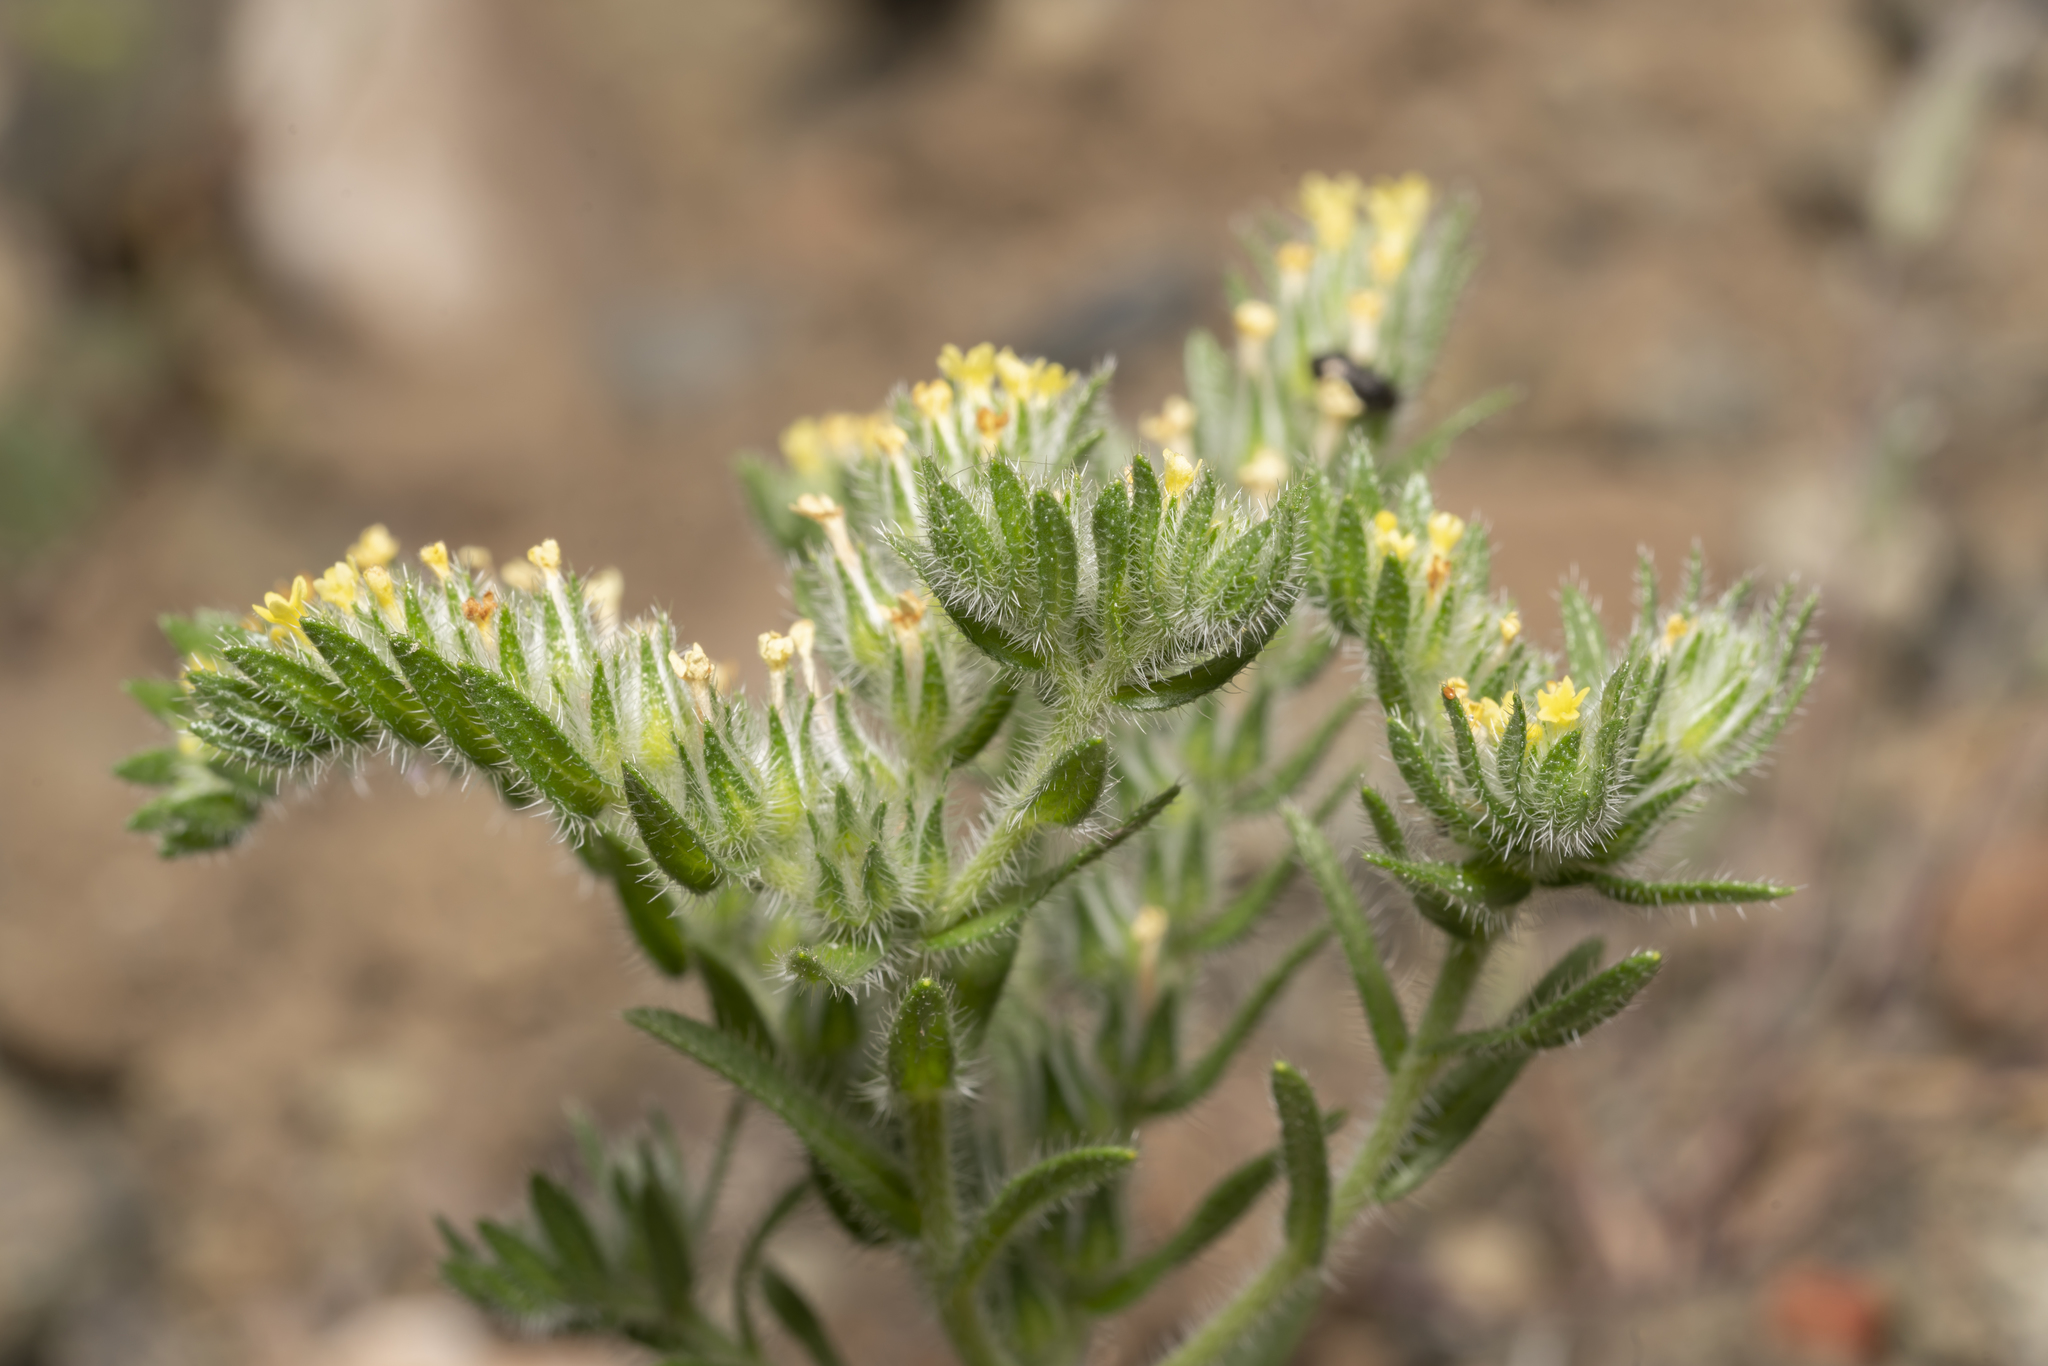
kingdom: Plantae
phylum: Tracheophyta
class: Magnoliopsida
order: Boraginales
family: Boraginaceae
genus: Neatostema
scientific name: Neatostema apulum
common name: Hairy sheepweed
